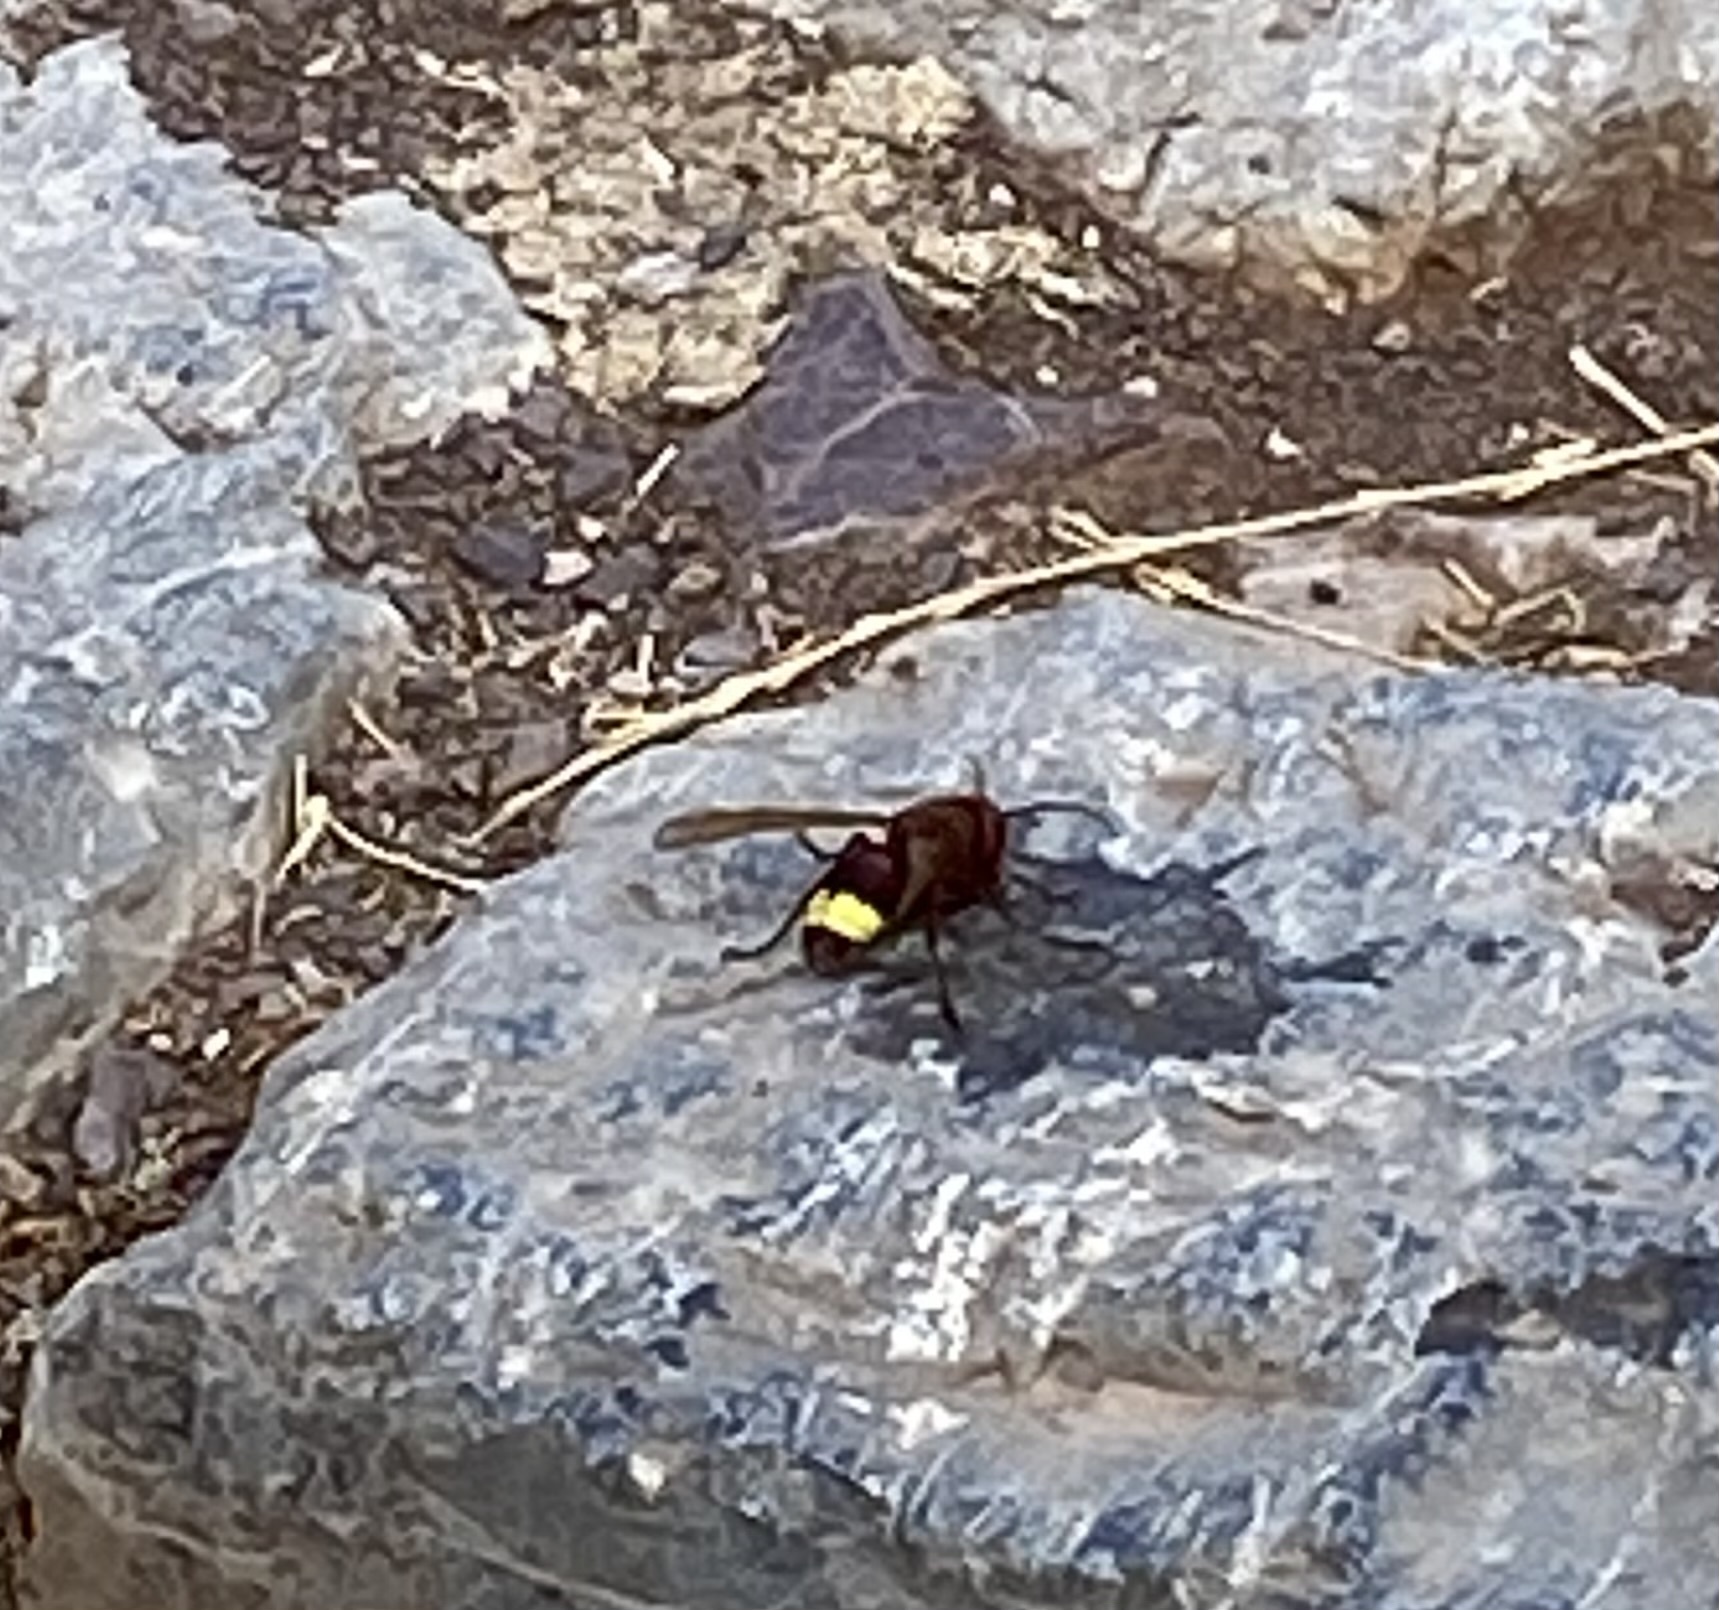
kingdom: Animalia
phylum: Arthropoda
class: Insecta
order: Hymenoptera
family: Vespidae
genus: Vespa
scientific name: Vespa orientalis
